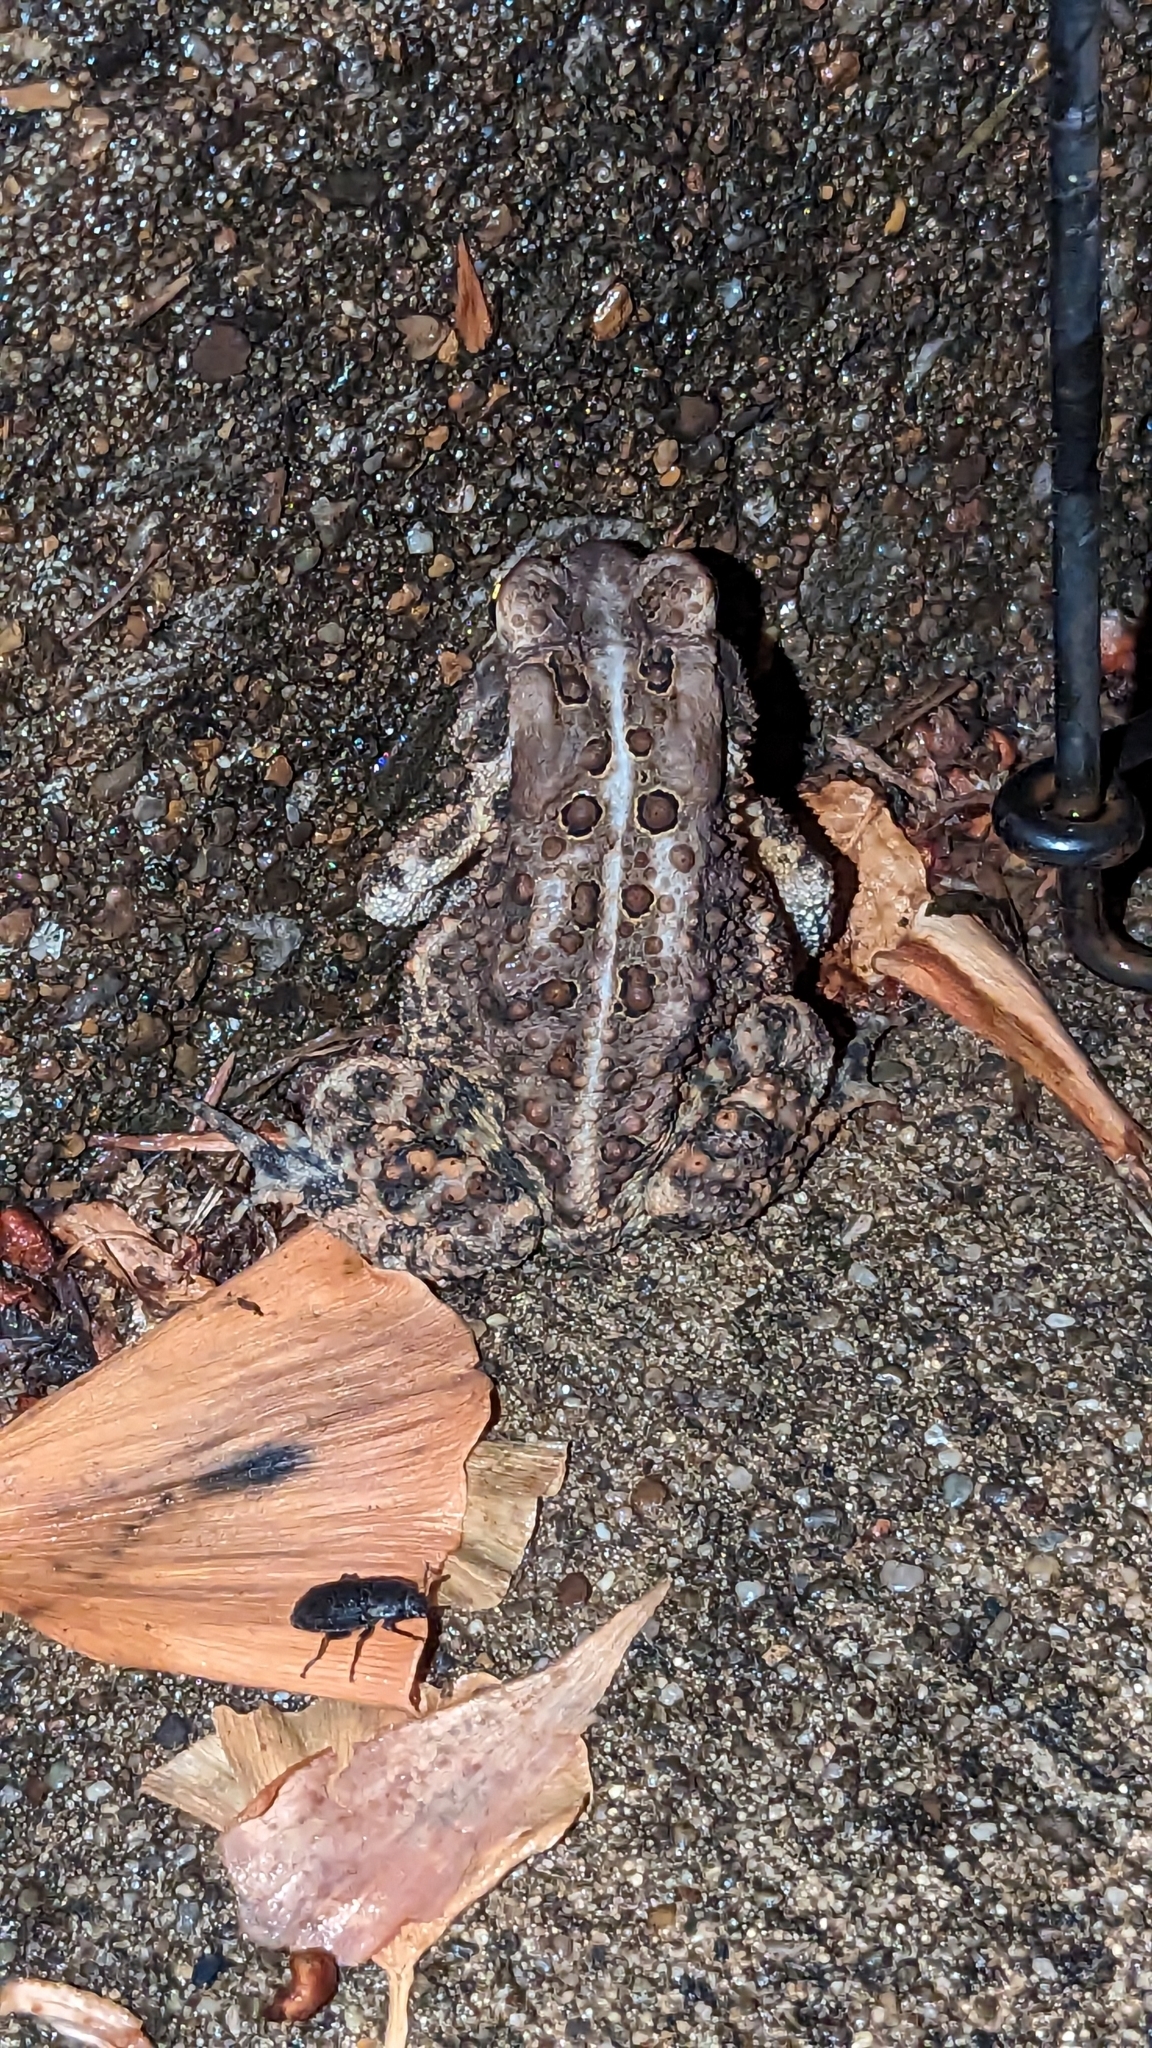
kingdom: Animalia
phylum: Chordata
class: Amphibia
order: Anura
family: Bufonidae
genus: Anaxyrus
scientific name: Anaxyrus americanus
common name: American toad
